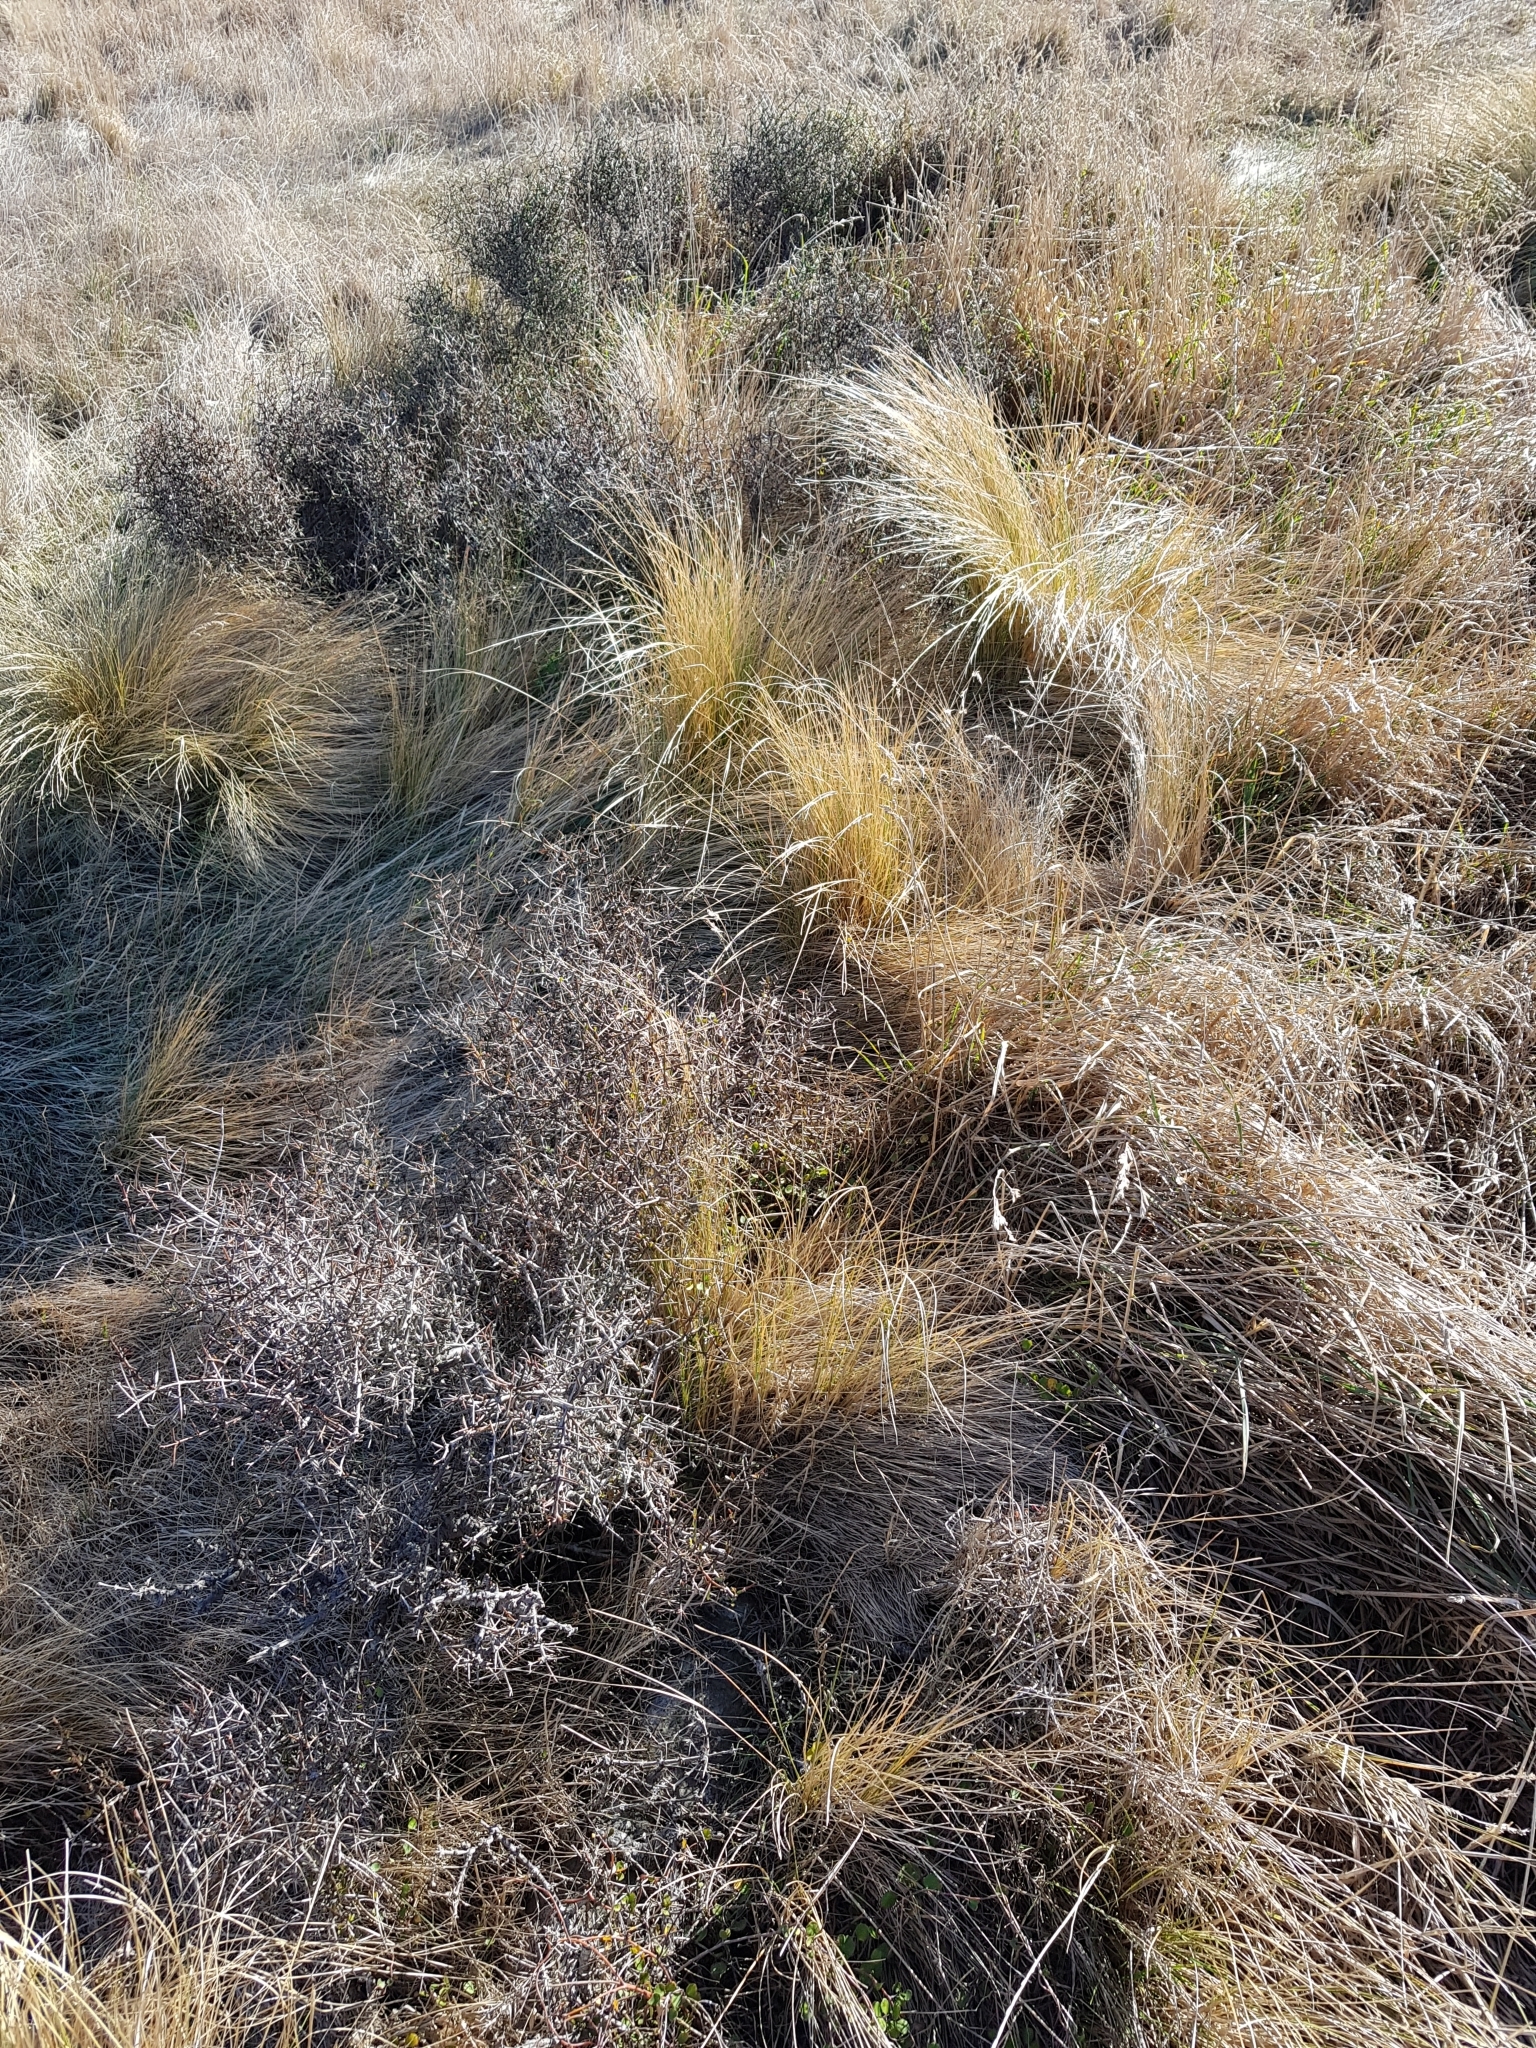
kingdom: Plantae
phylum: Tracheophyta
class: Magnoliopsida
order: Rosales
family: Rhamnaceae
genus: Discaria
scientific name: Discaria toumatou
